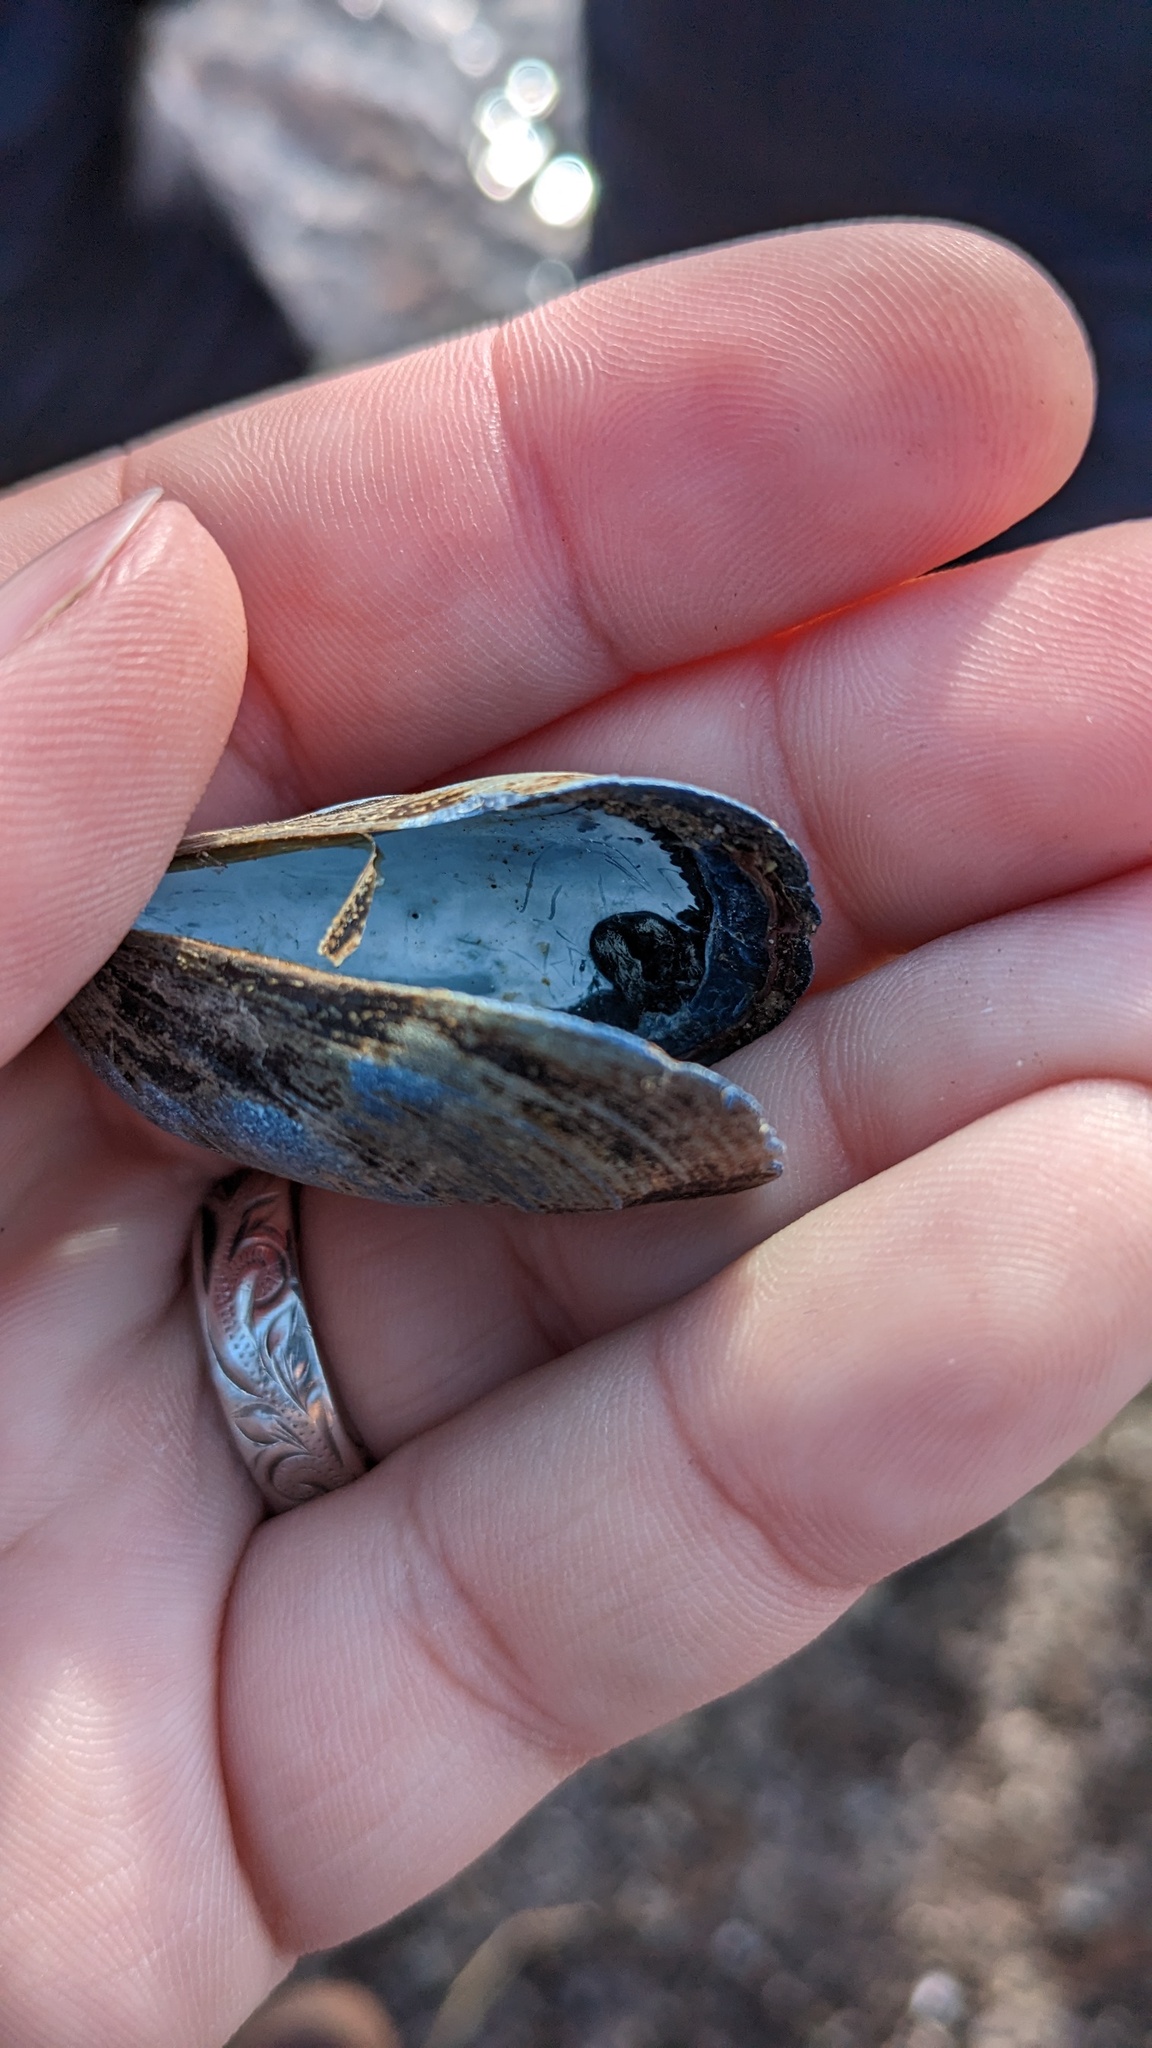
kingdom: Animalia
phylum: Mollusca
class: Bivalvia
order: Mytilida
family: Mytilidae
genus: Mytilus
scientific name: Mytilus
